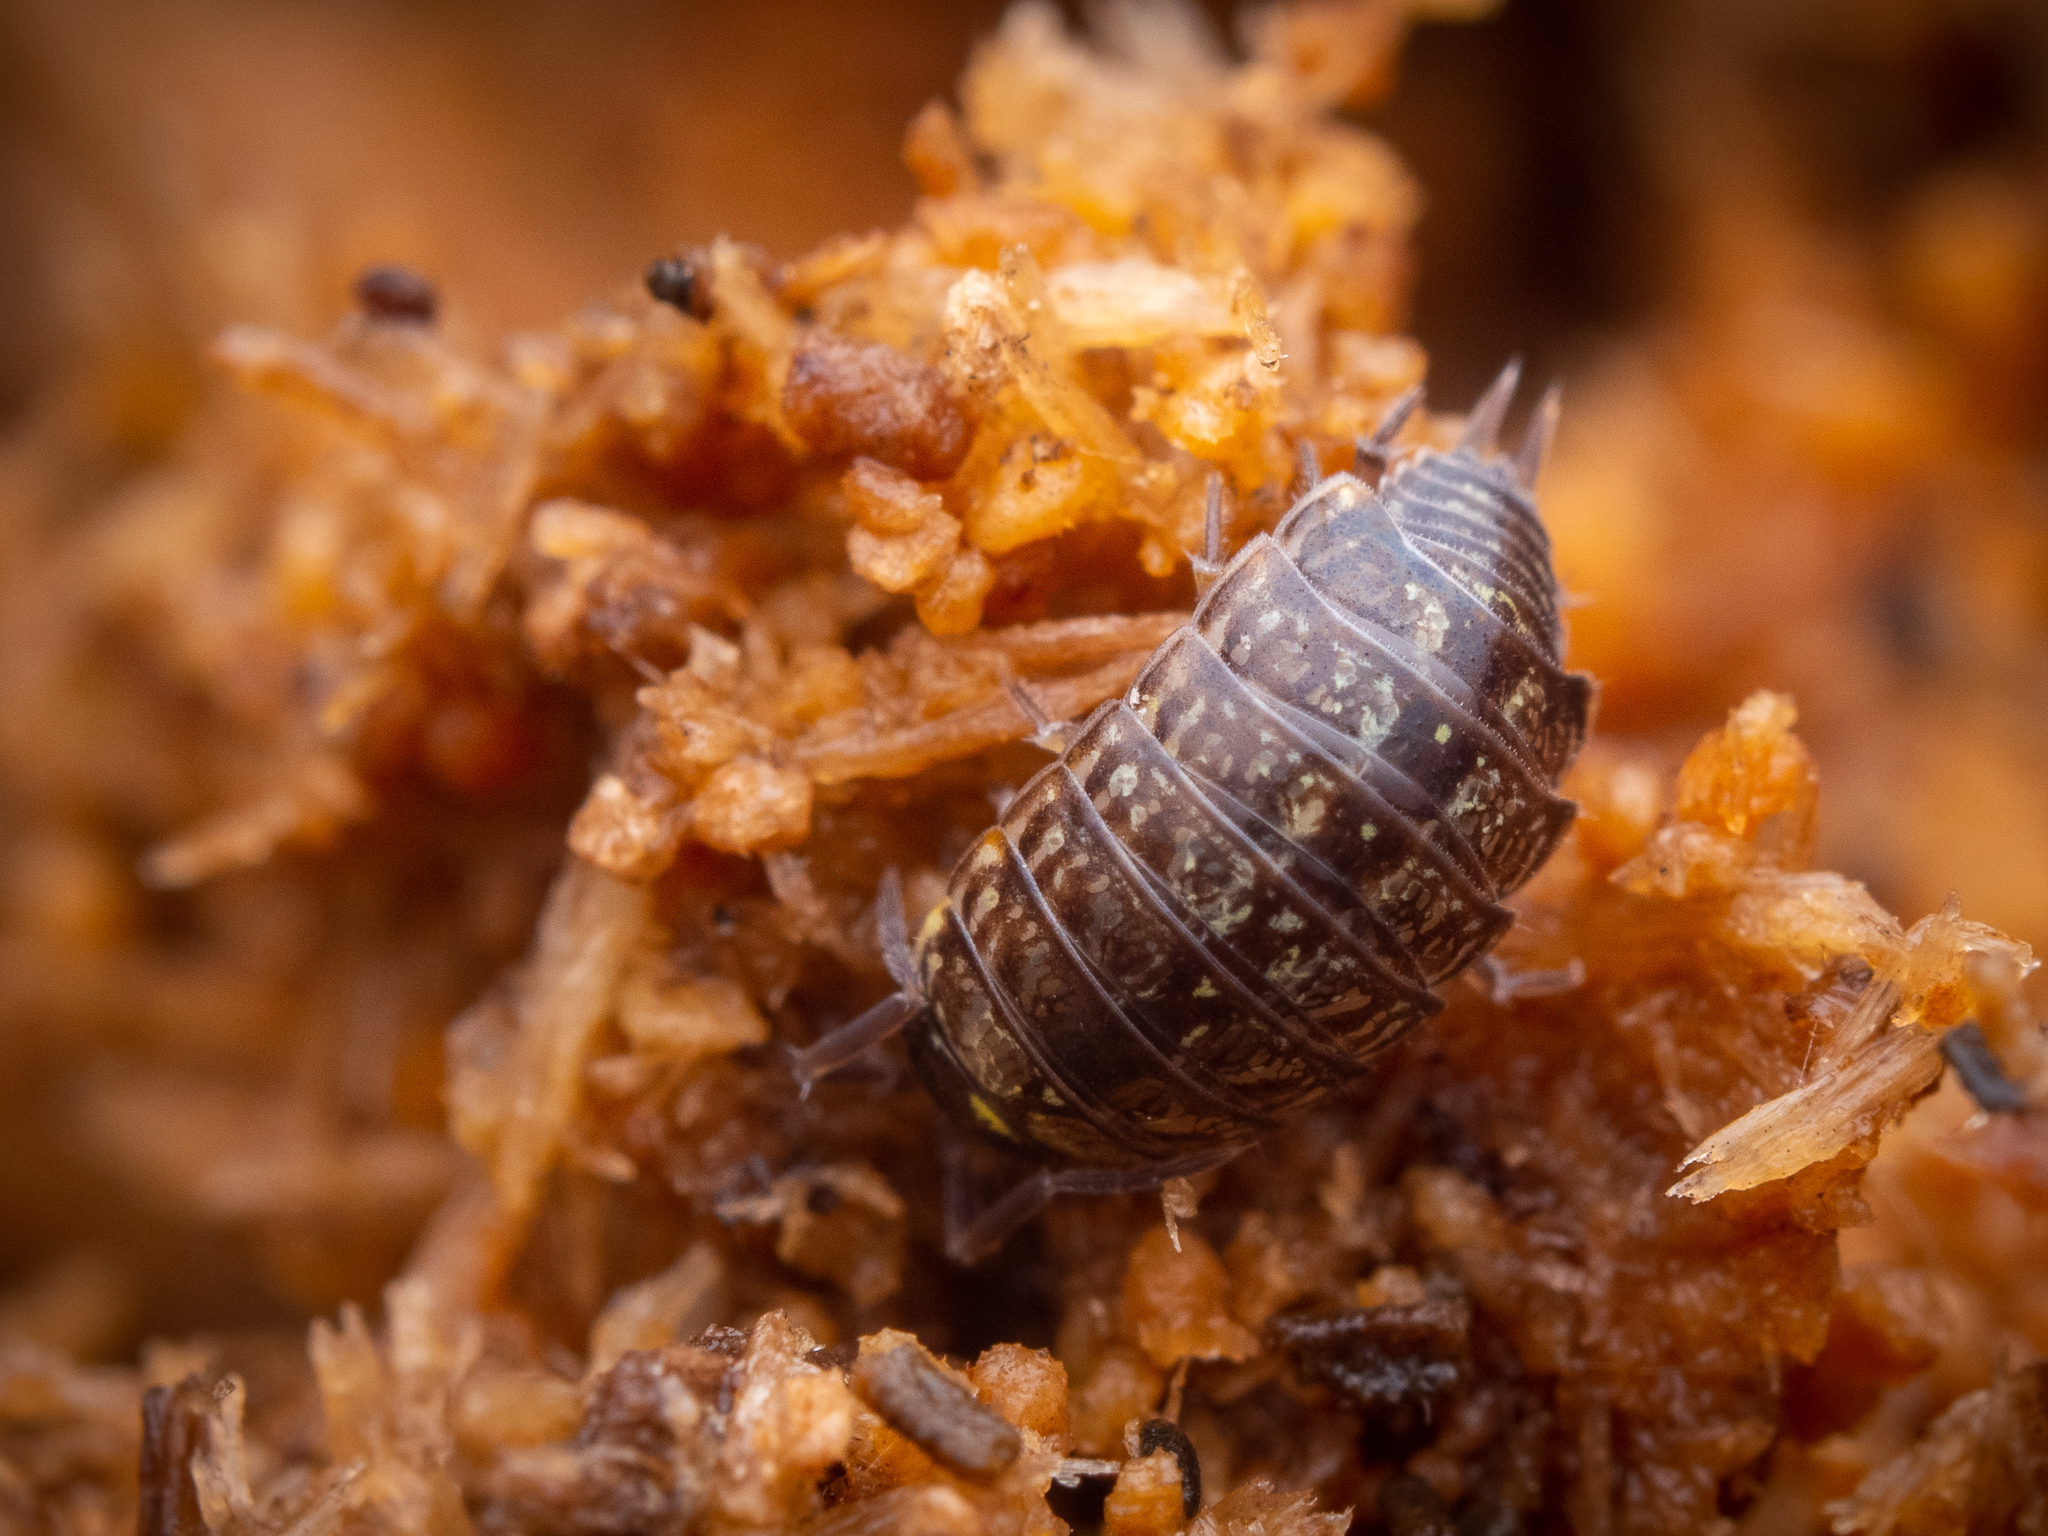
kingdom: Animalia
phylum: Arthropoda
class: Malacostraca
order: Isopoda
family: Philosciidae
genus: Philoscia
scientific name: Philoscia muscorum
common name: Common striped woodlouse
